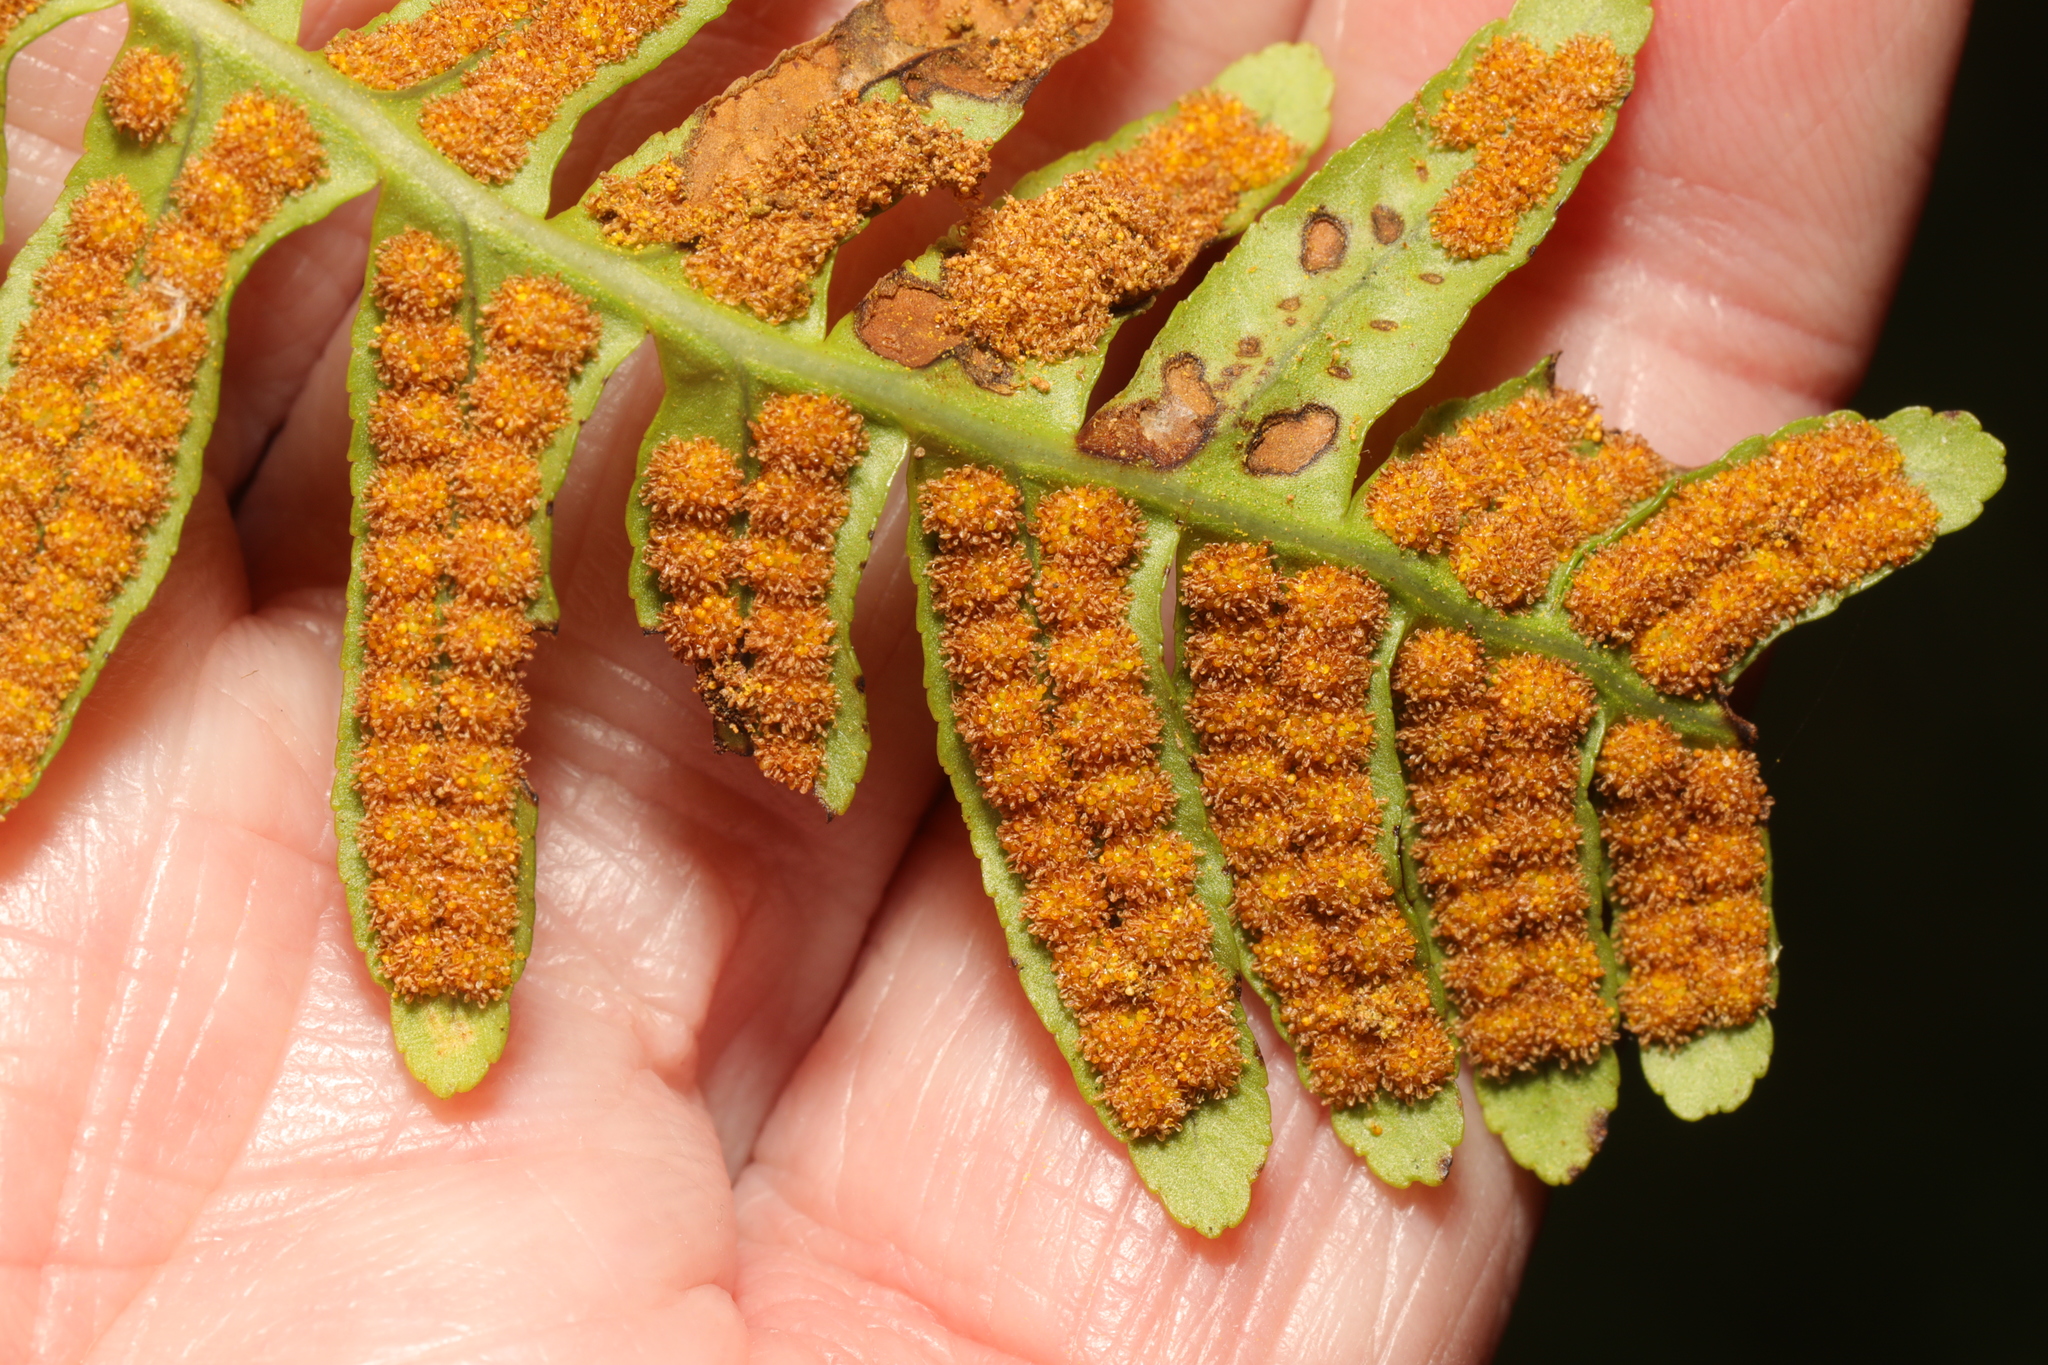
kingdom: Plantae
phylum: Tracheophyta
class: Polypodiopsida
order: Polypodiales
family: Polypodiaceae
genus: Polypodium
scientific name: Polypodium vulgare
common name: Common polypody
